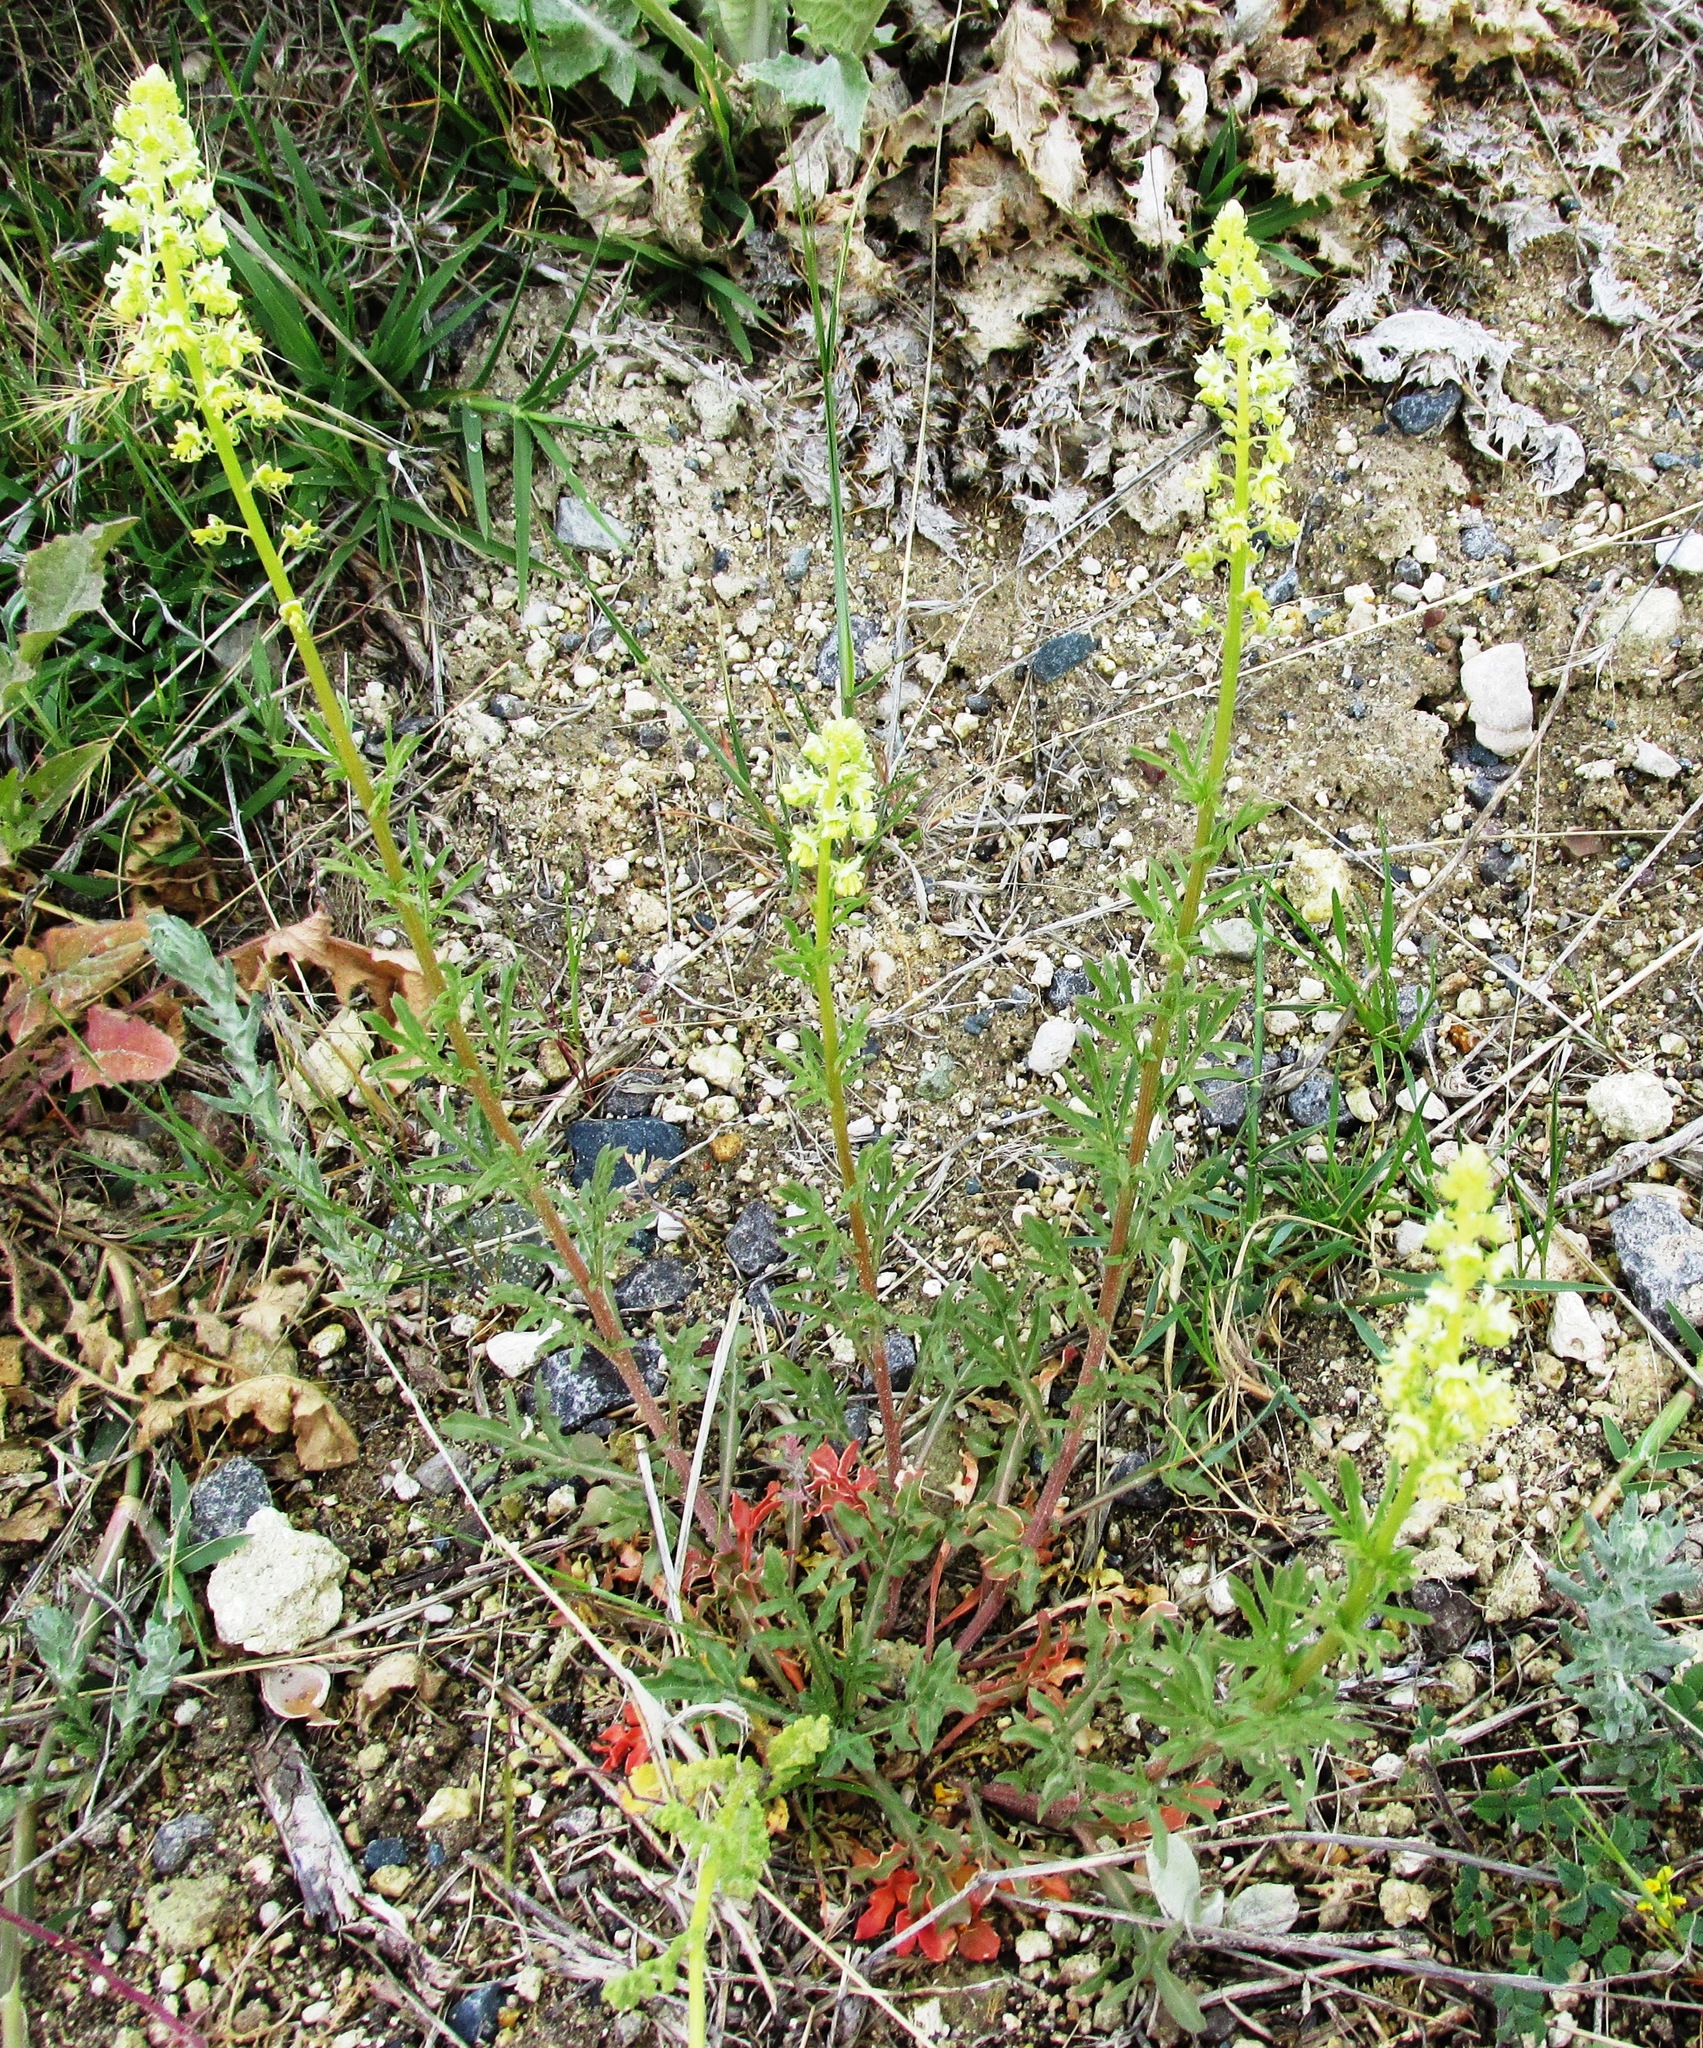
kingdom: Plantae
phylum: Tracheophyta
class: Magnoliopsida
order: Brassicales
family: Resedaceae
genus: Reseda
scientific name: Reseda lutea
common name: Wild mignonette
